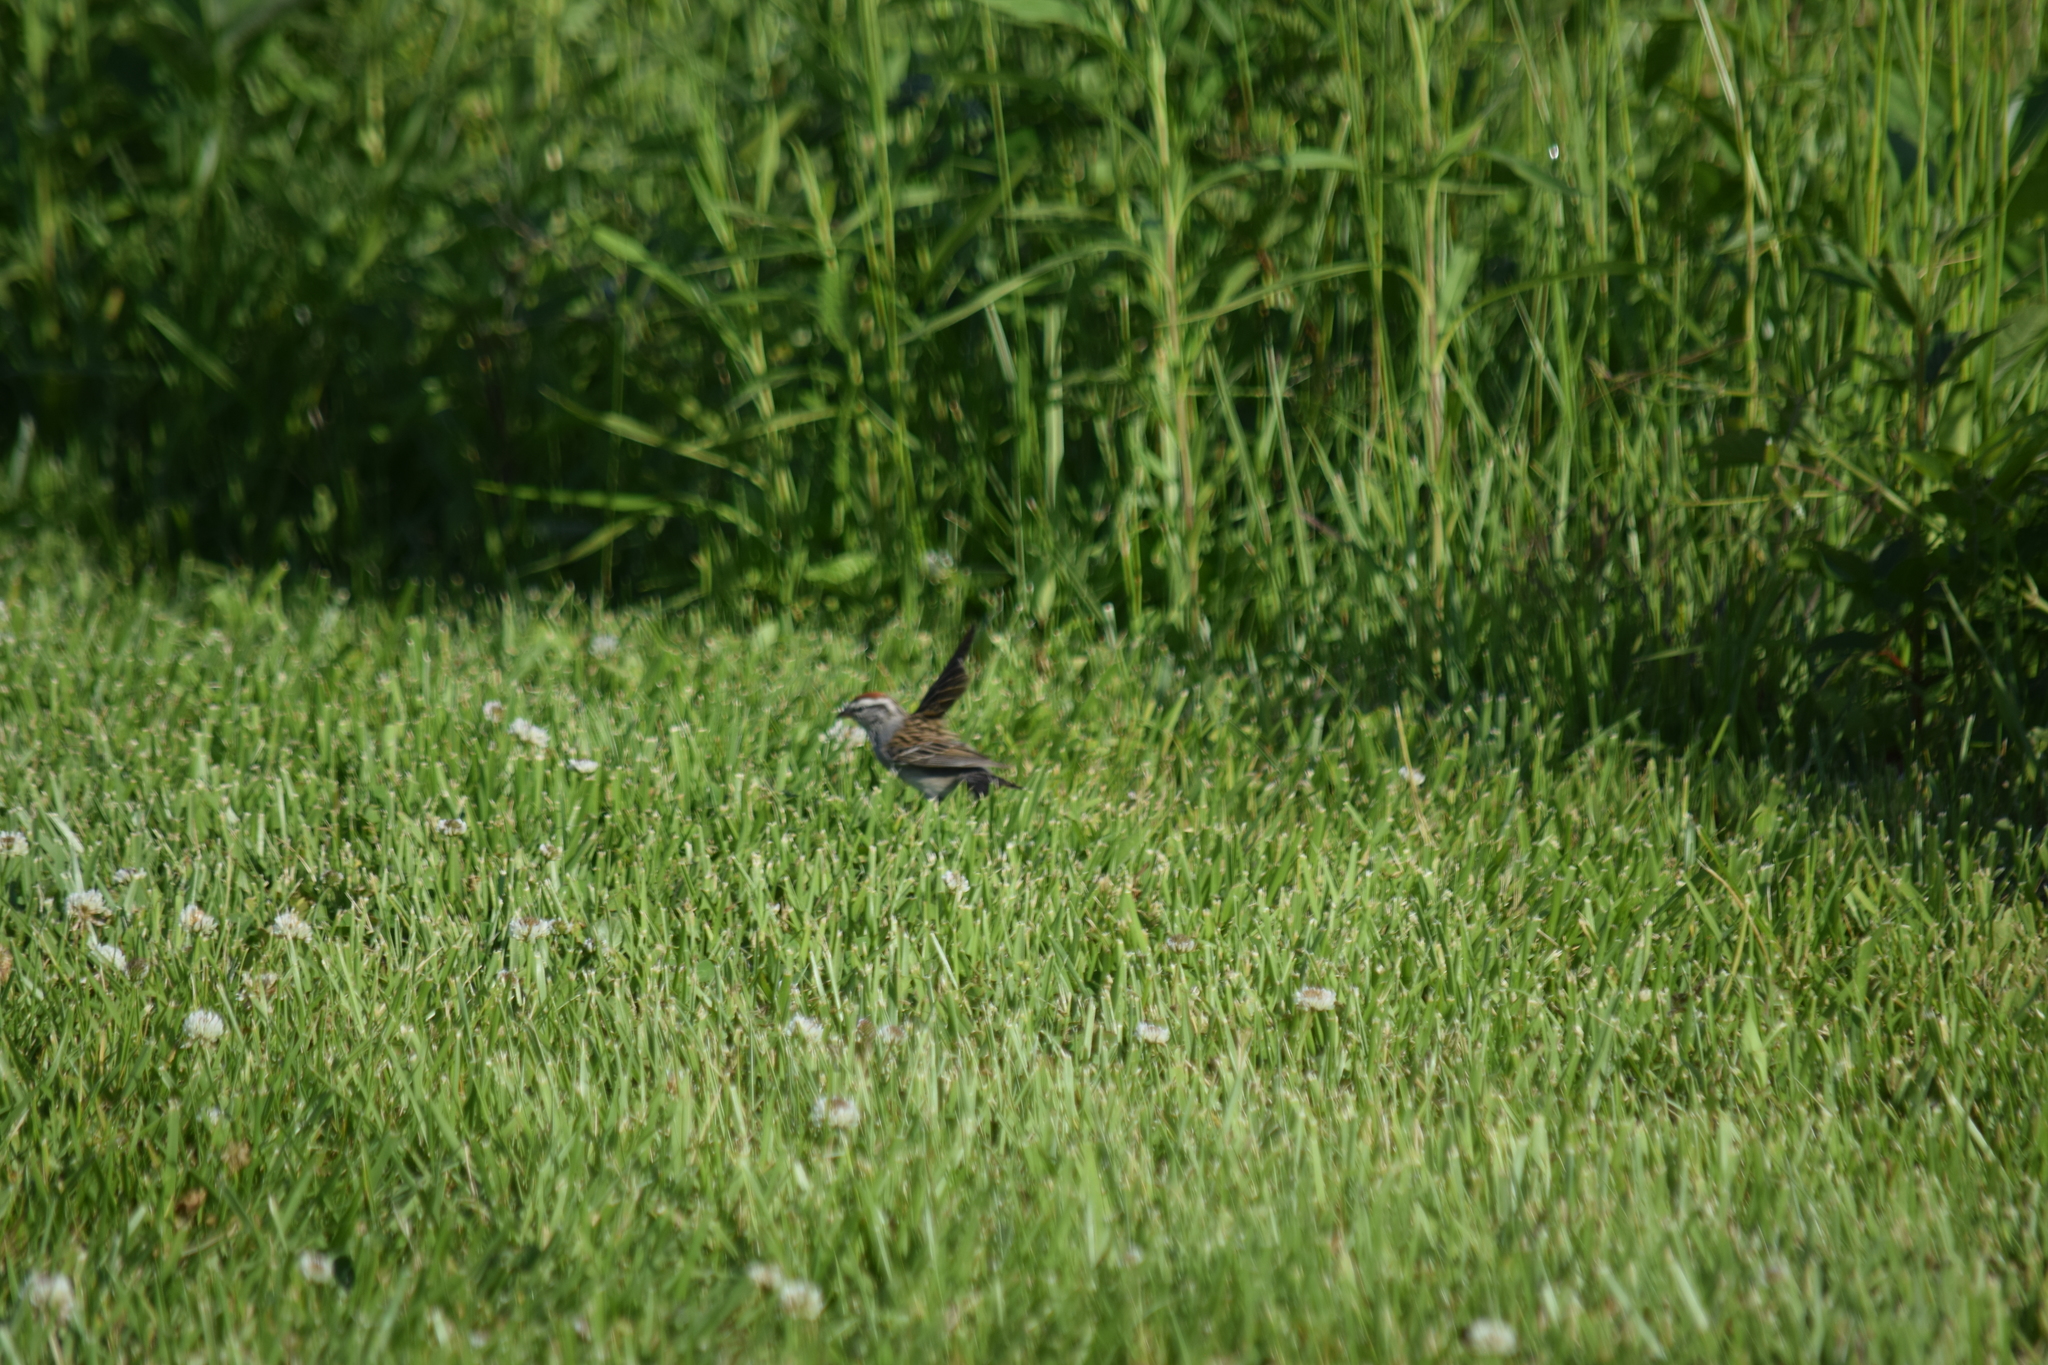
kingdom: Animalia
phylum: Chordata
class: Aves
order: Passeriformes
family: Passerellidae
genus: Spizella
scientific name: Spizella passerina
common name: Chipping sparrow
